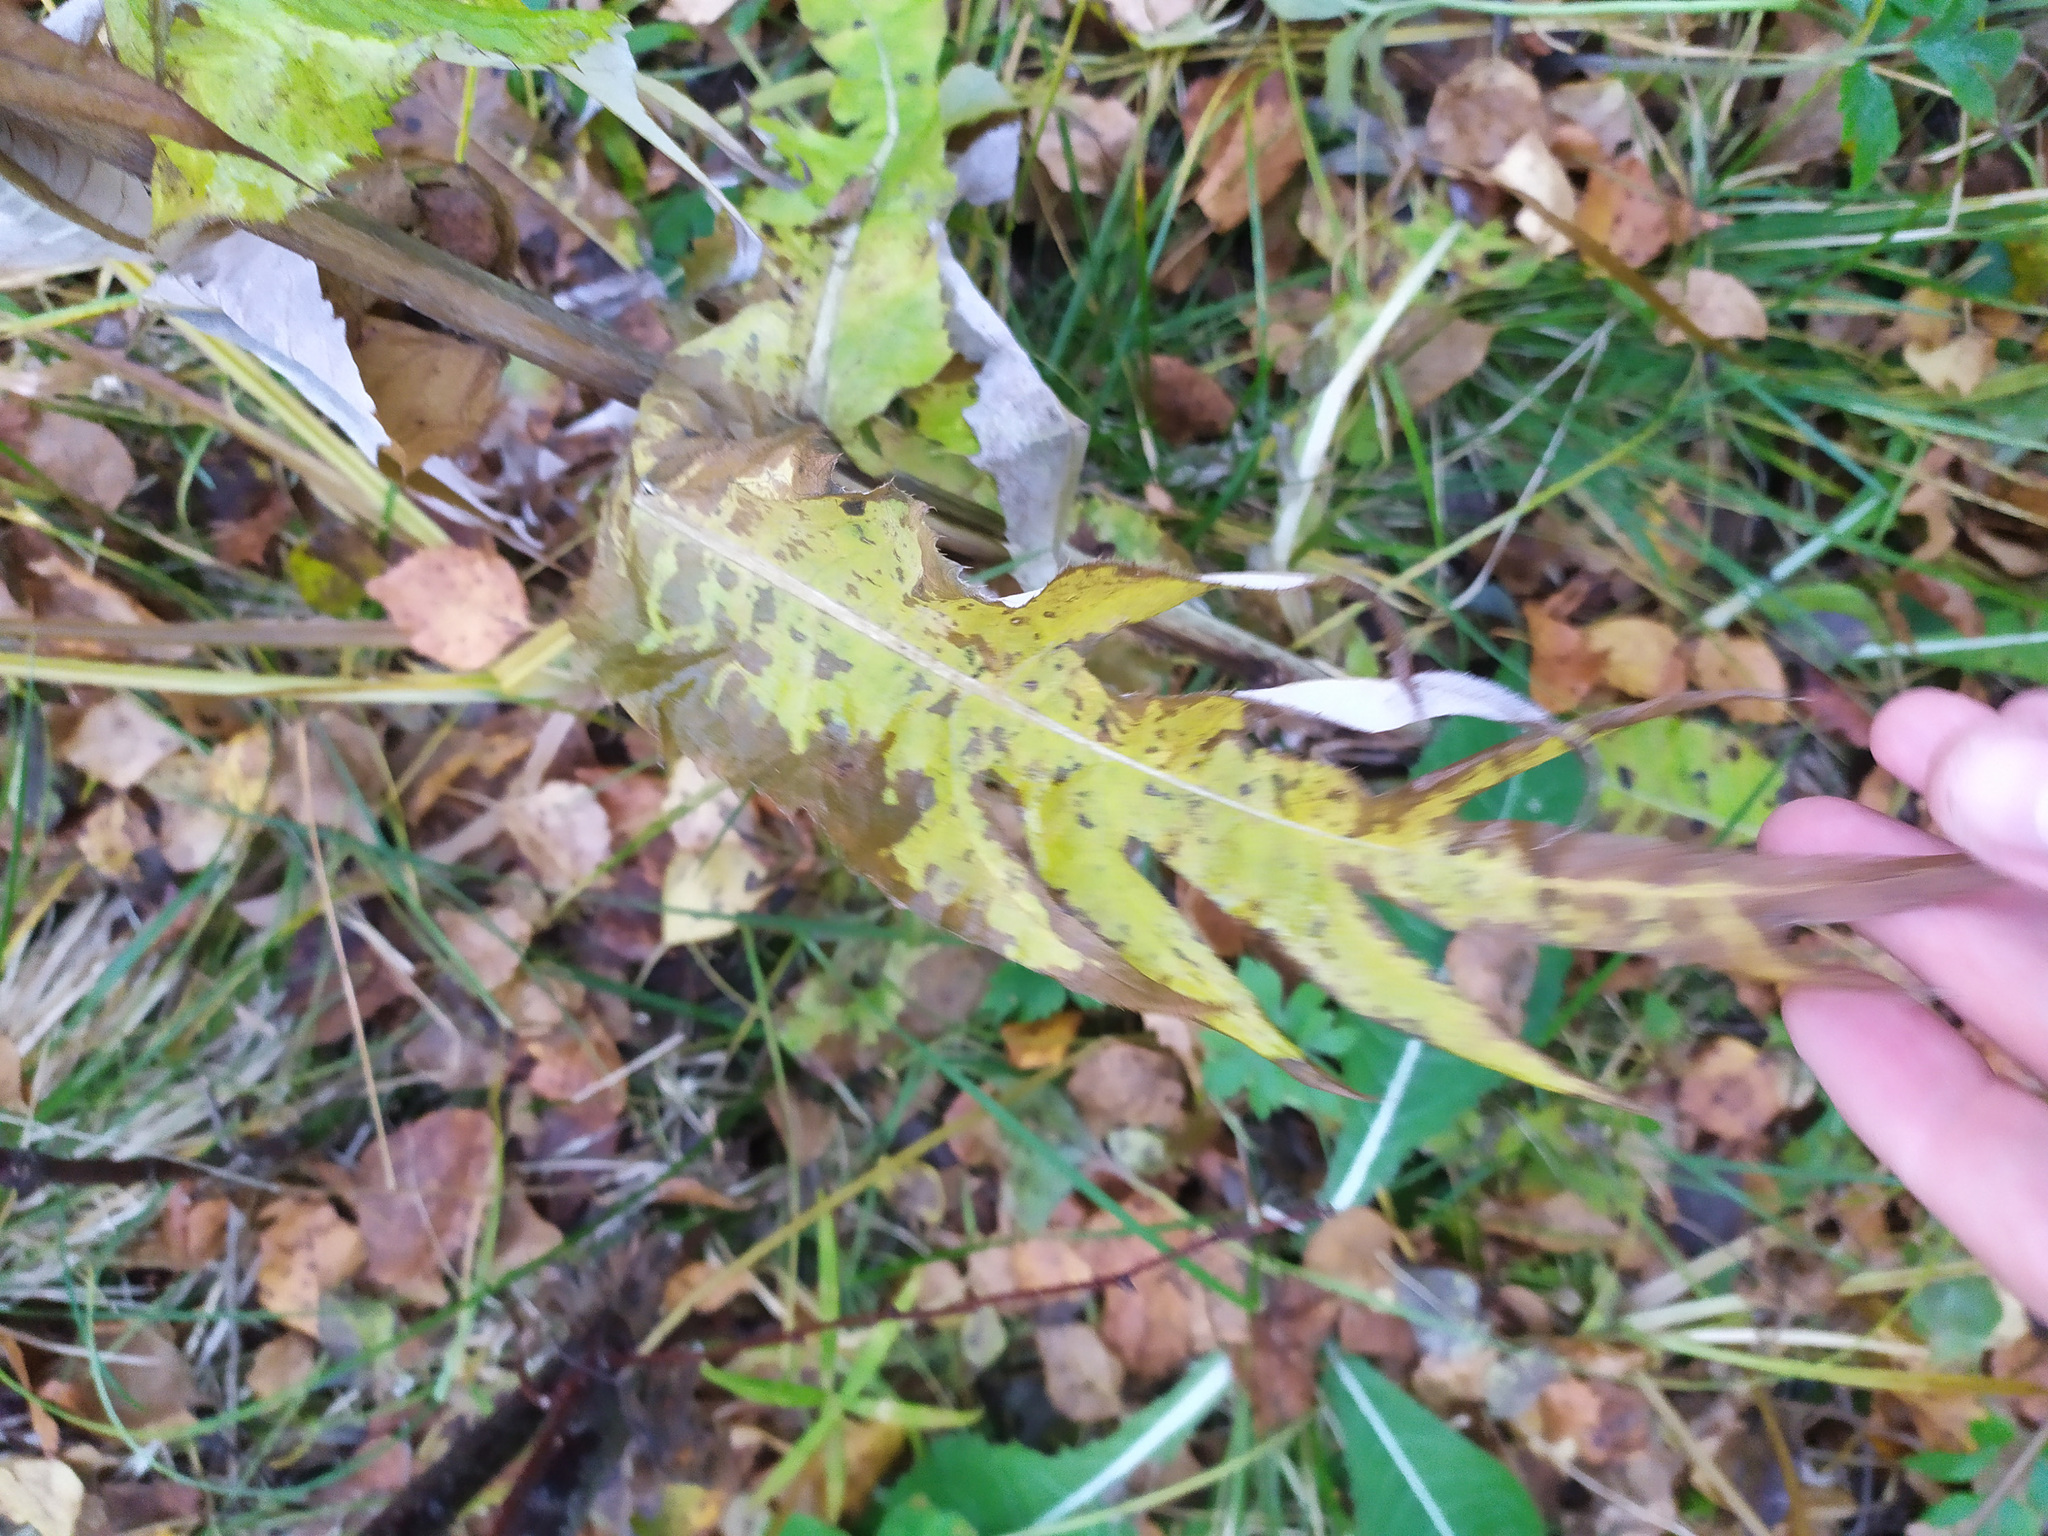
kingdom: Plantae
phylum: Tracheophyta
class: Magnoliopsida
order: Asterales
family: Asteraceae
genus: Cirsium
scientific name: Cirsium heterophyllum
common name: Melancholy thistle
